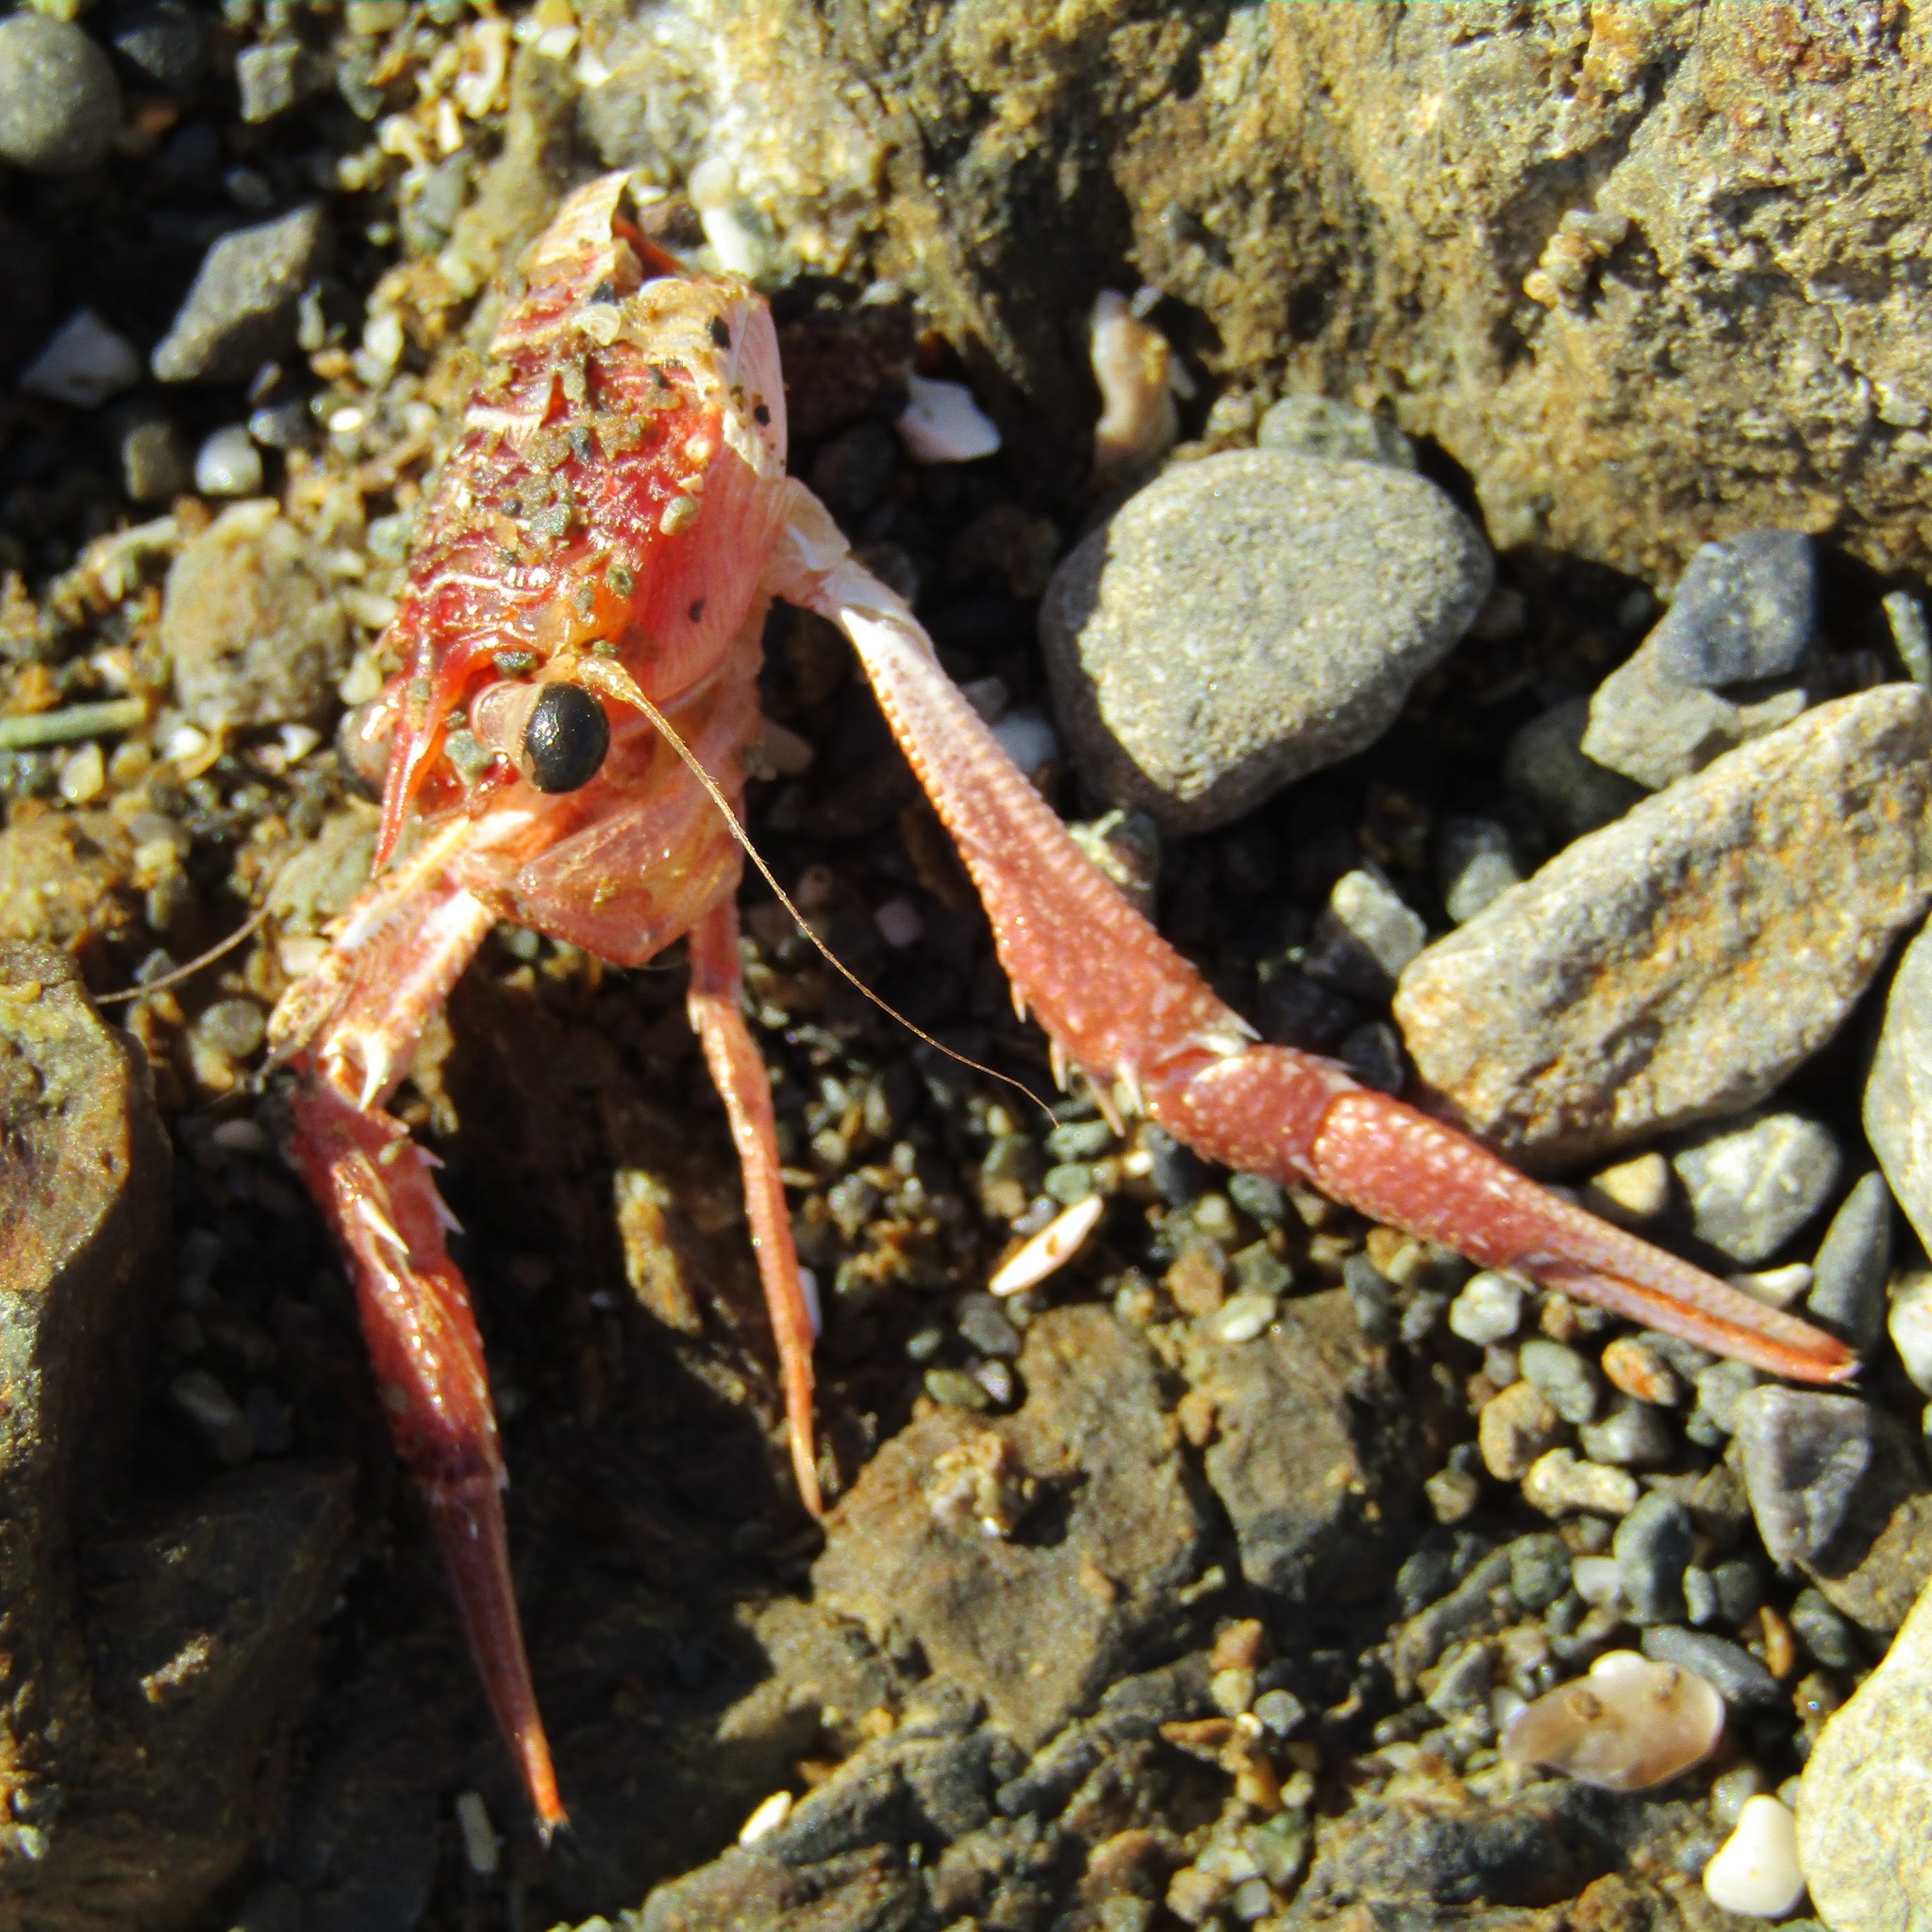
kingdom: Animalia
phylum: Arthropoda
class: Malacostraca
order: Decapoda
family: Munididae
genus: Grimothea
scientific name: Grimothea gregaria
